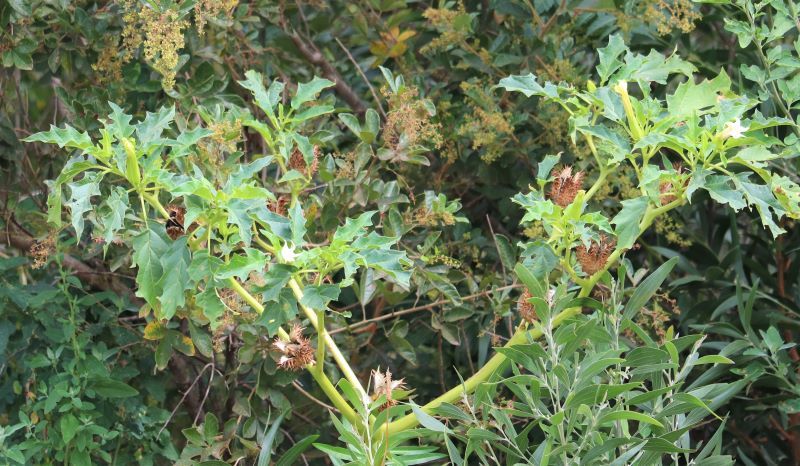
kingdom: Plantae
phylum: Tracheophyta
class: Magnoliopsida
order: Solanales
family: Solanaceae
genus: Datura
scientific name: Datura stramonium
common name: Thorn-apple
